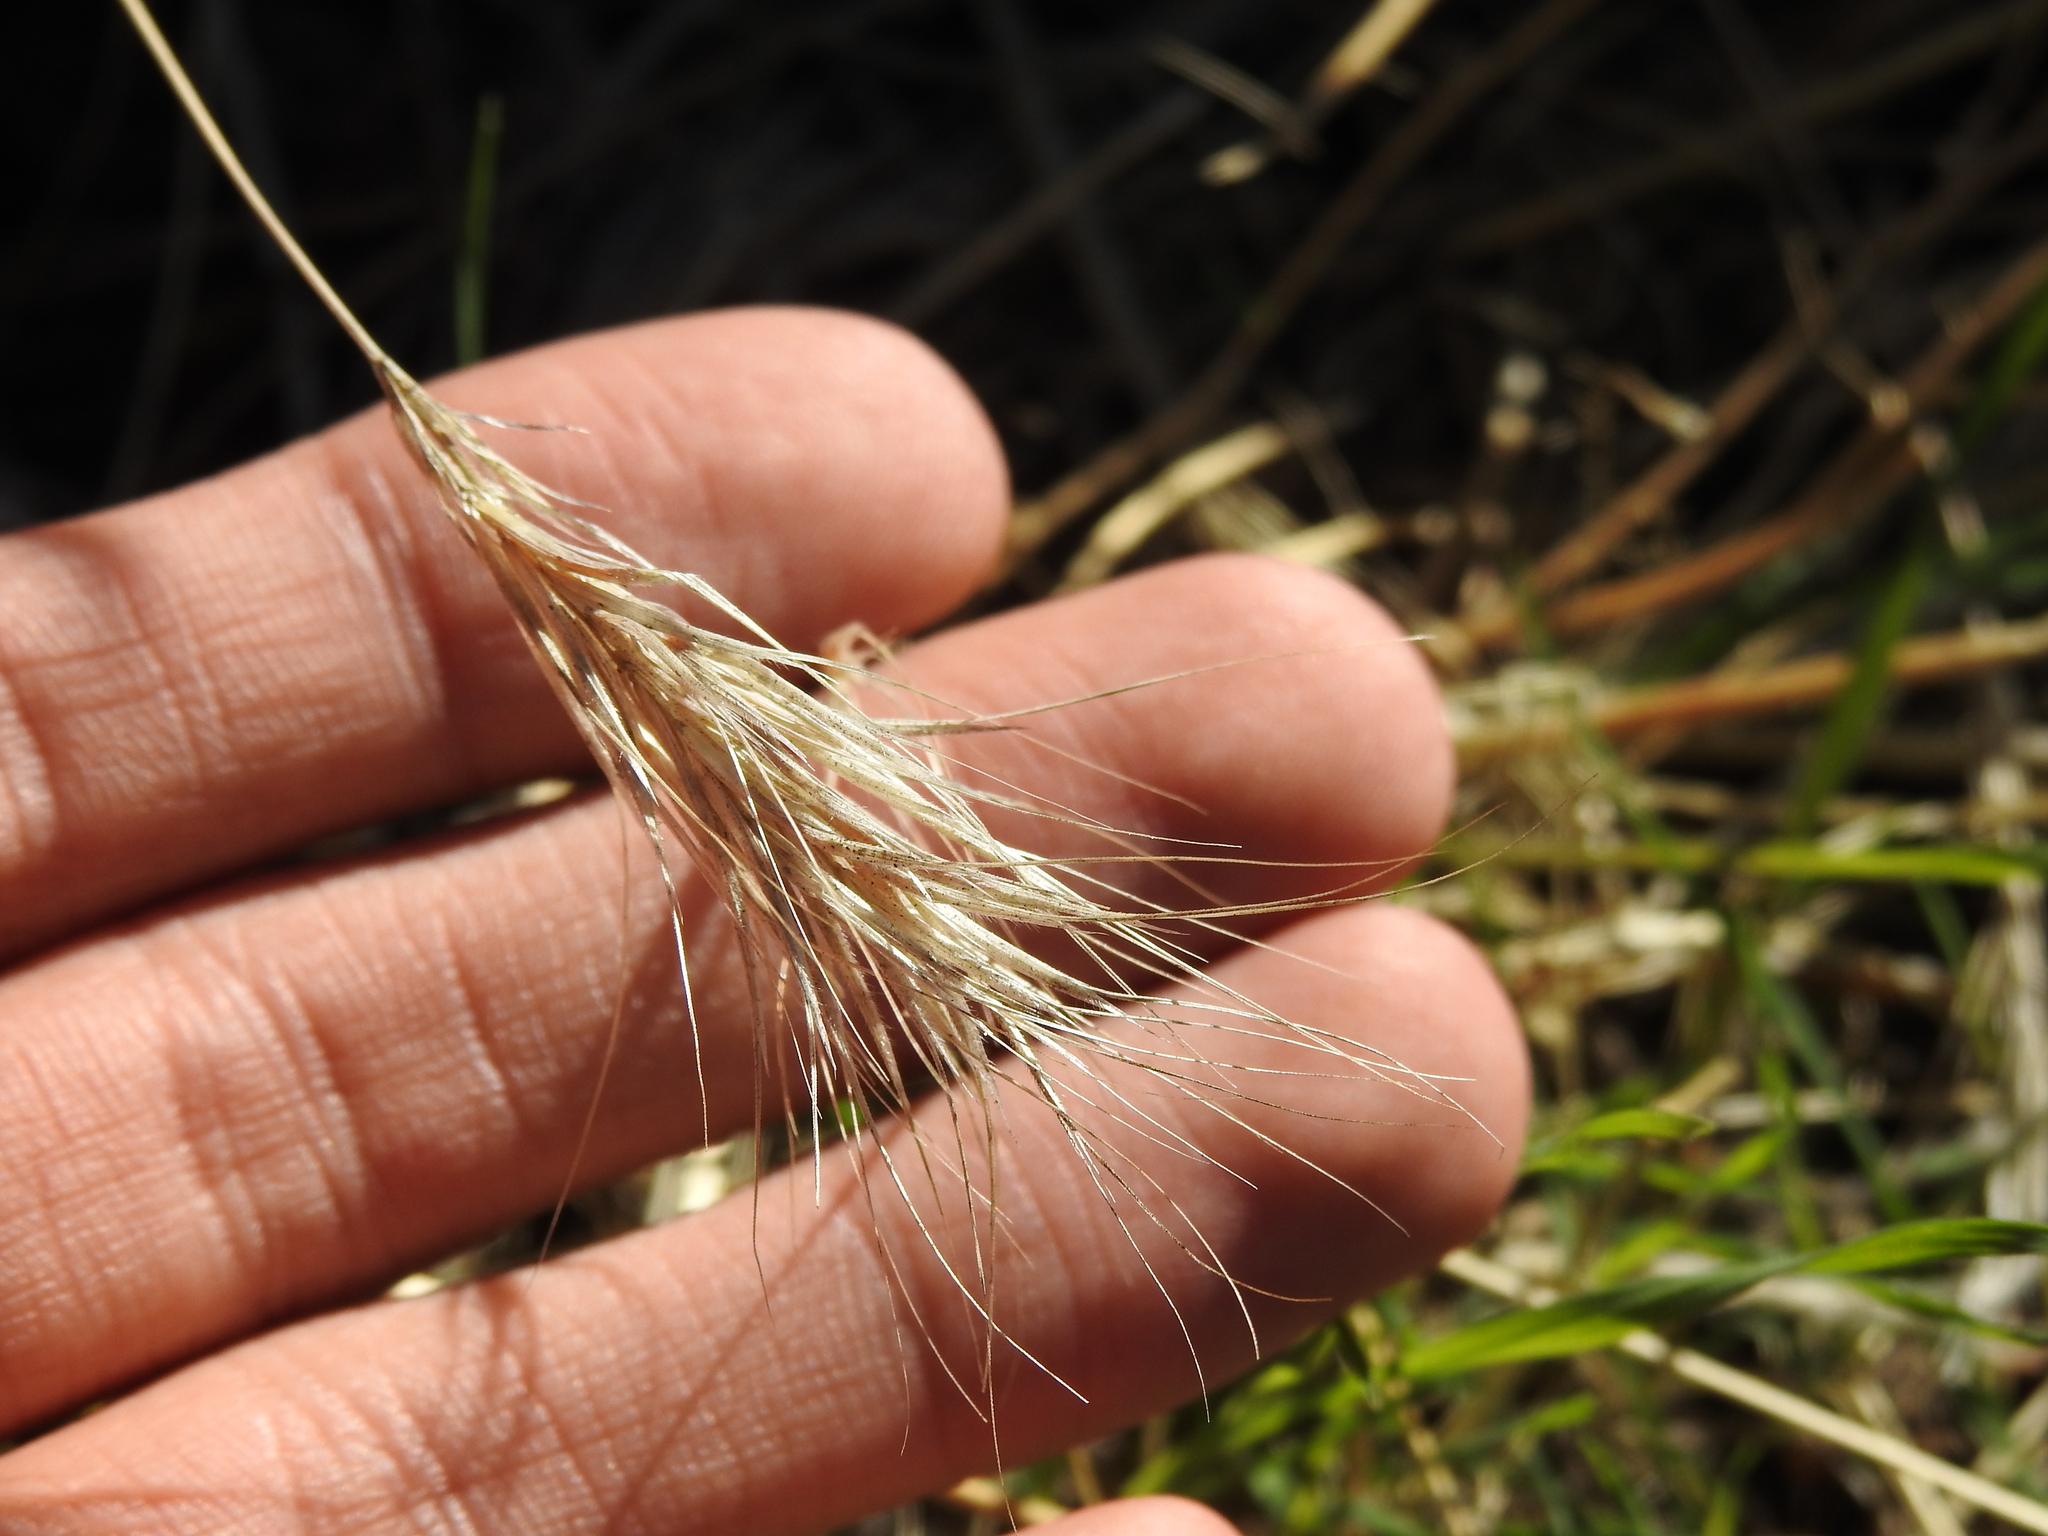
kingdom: Plantae
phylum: Tracheophyta
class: Liliopsida
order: Poales
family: Poaceae
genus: Bromus
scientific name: Bromus rubens
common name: Red brome
